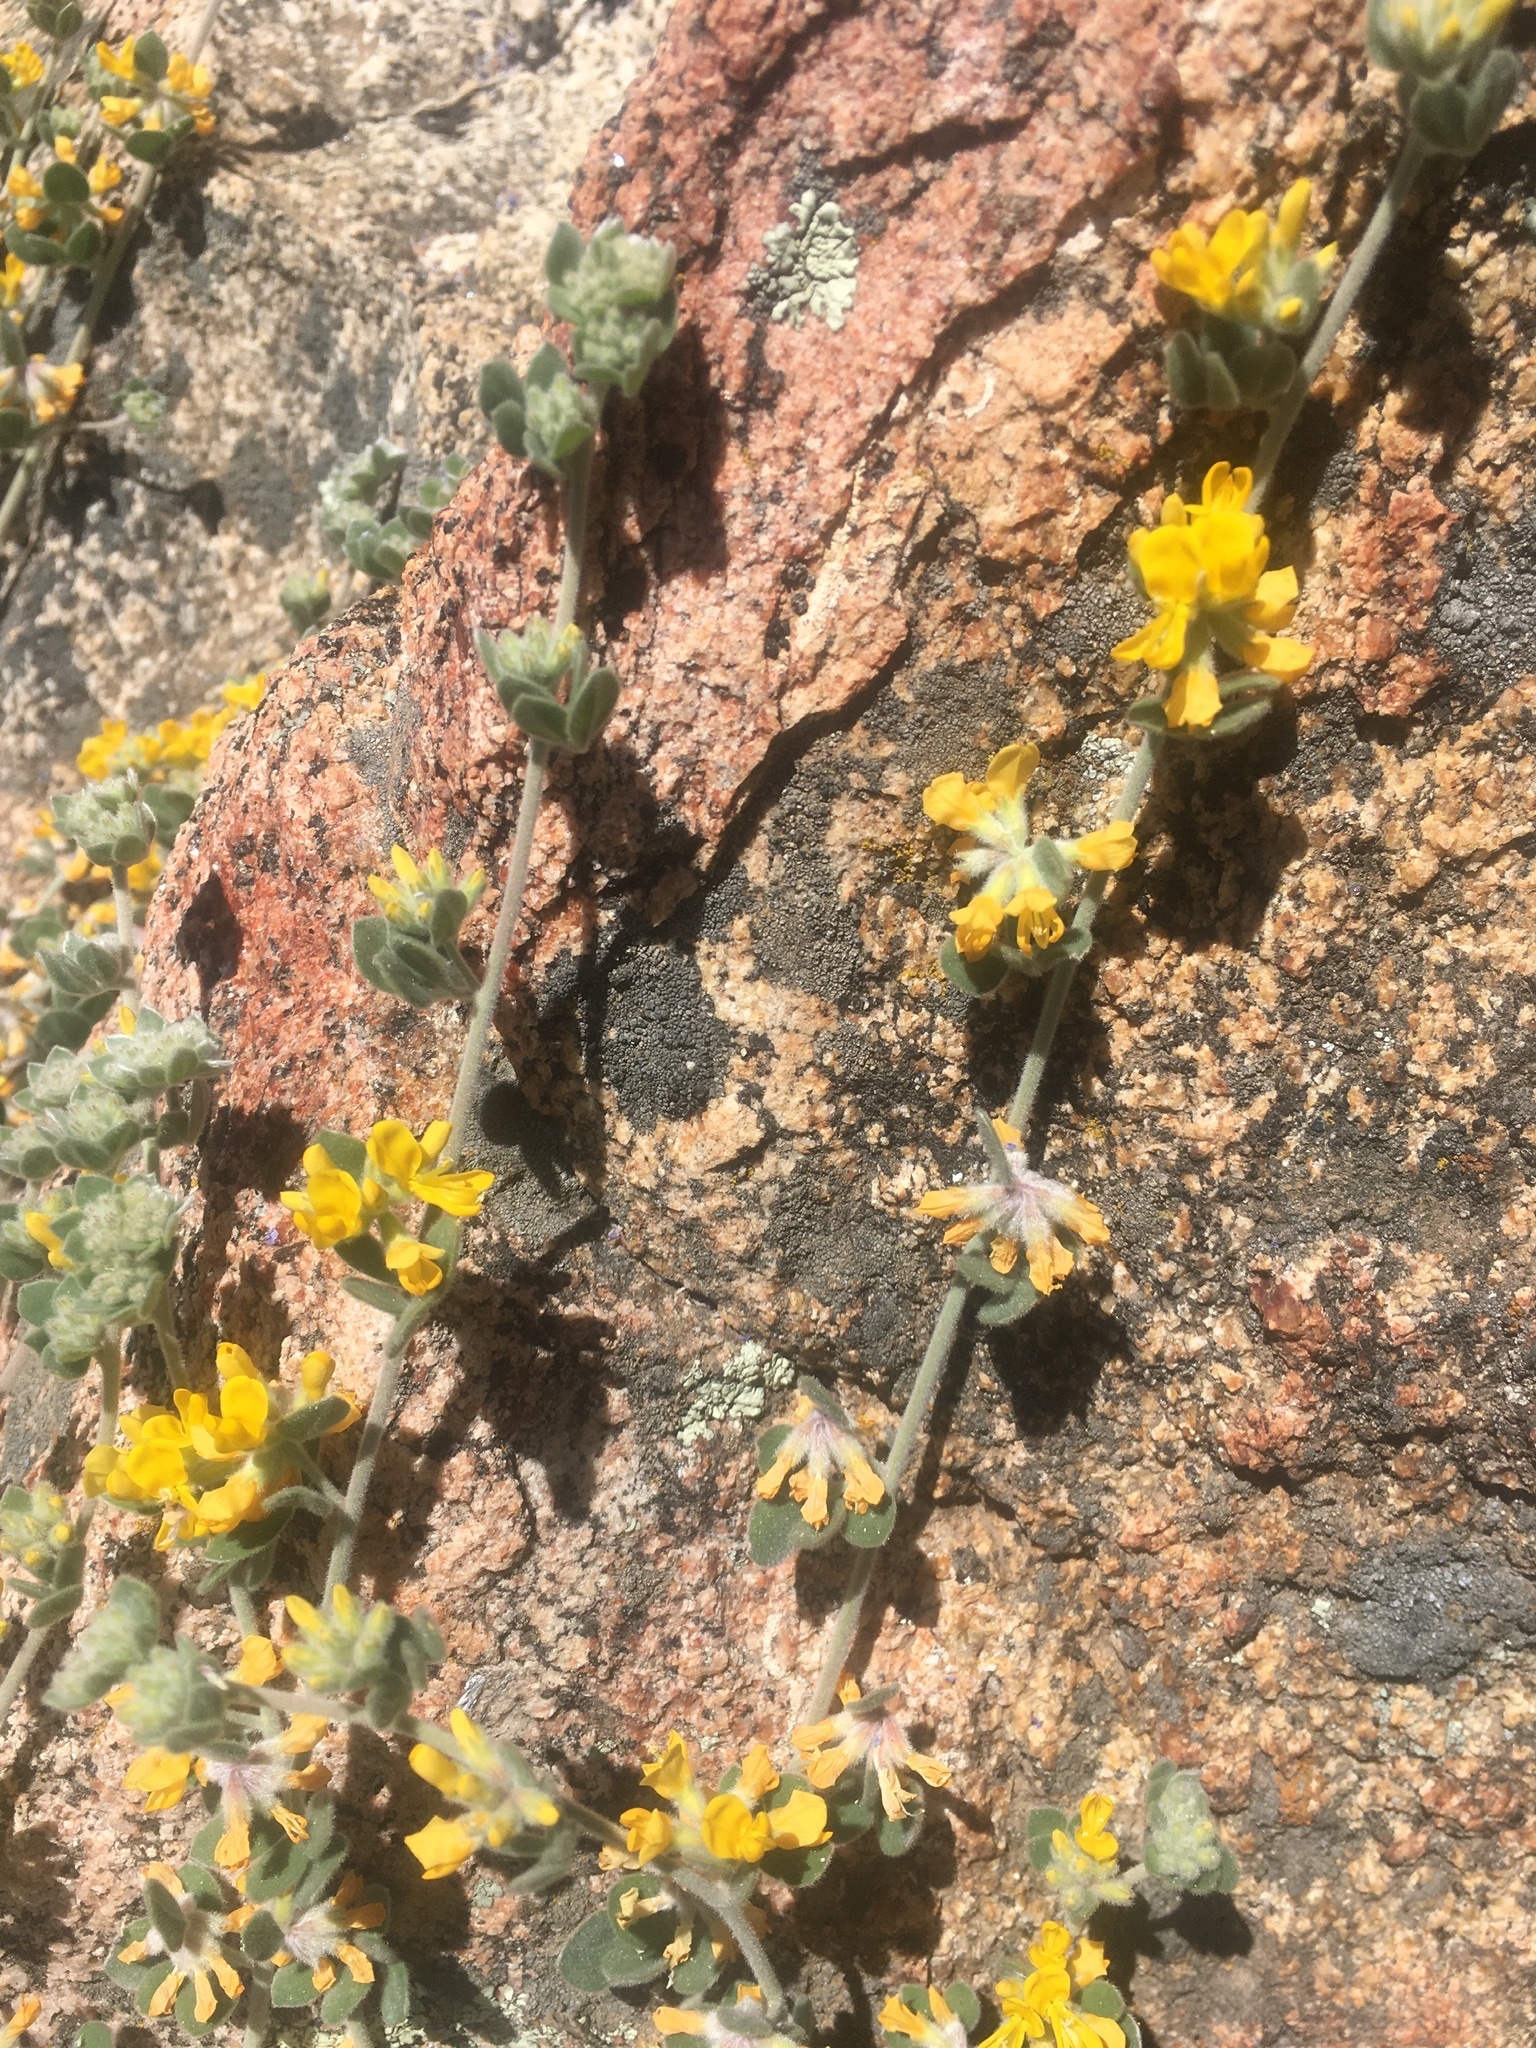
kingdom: Plantae
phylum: Tracheophyta
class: Magnoliopsida
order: Fabales
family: Fabaceae
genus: Acmispon
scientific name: Acmispon argophyllus
